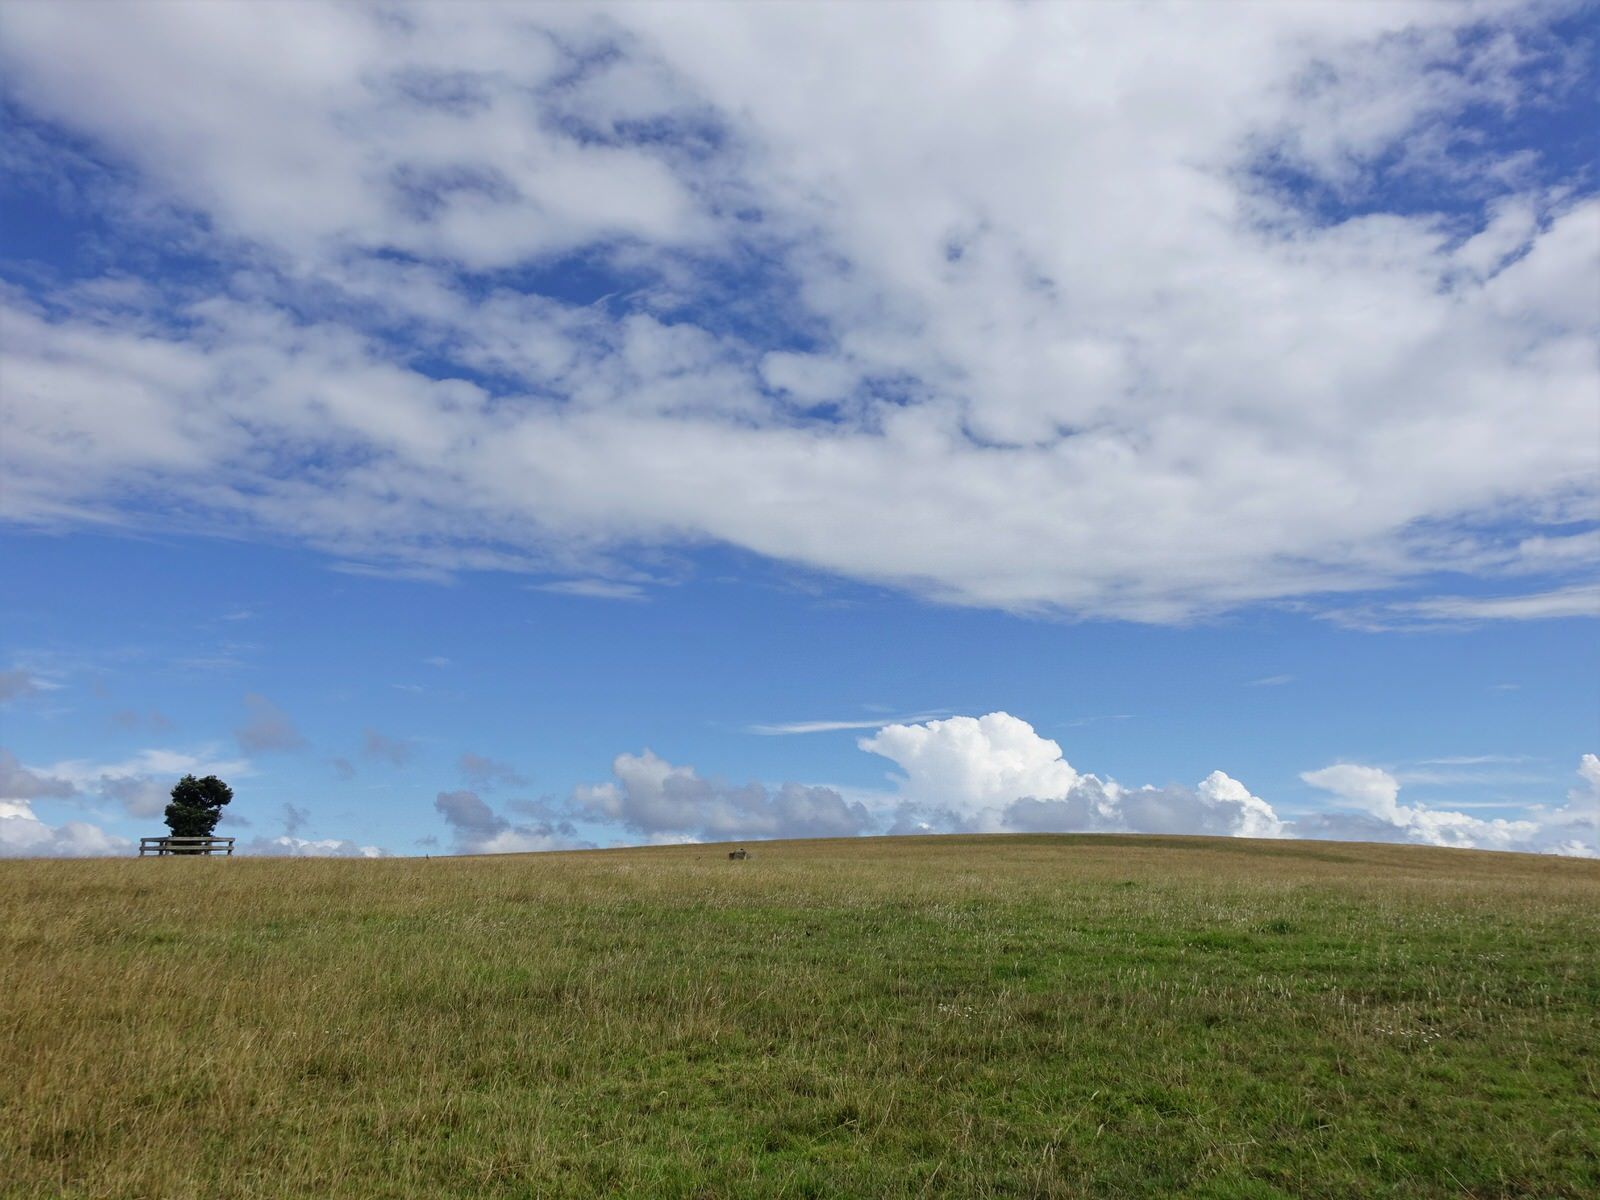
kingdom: Animalia
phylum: Chordata
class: Aves
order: Gruiformes
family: Rallidae
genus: Porphyrio
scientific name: Porphyrio melanotus
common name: Australasian swamphen
